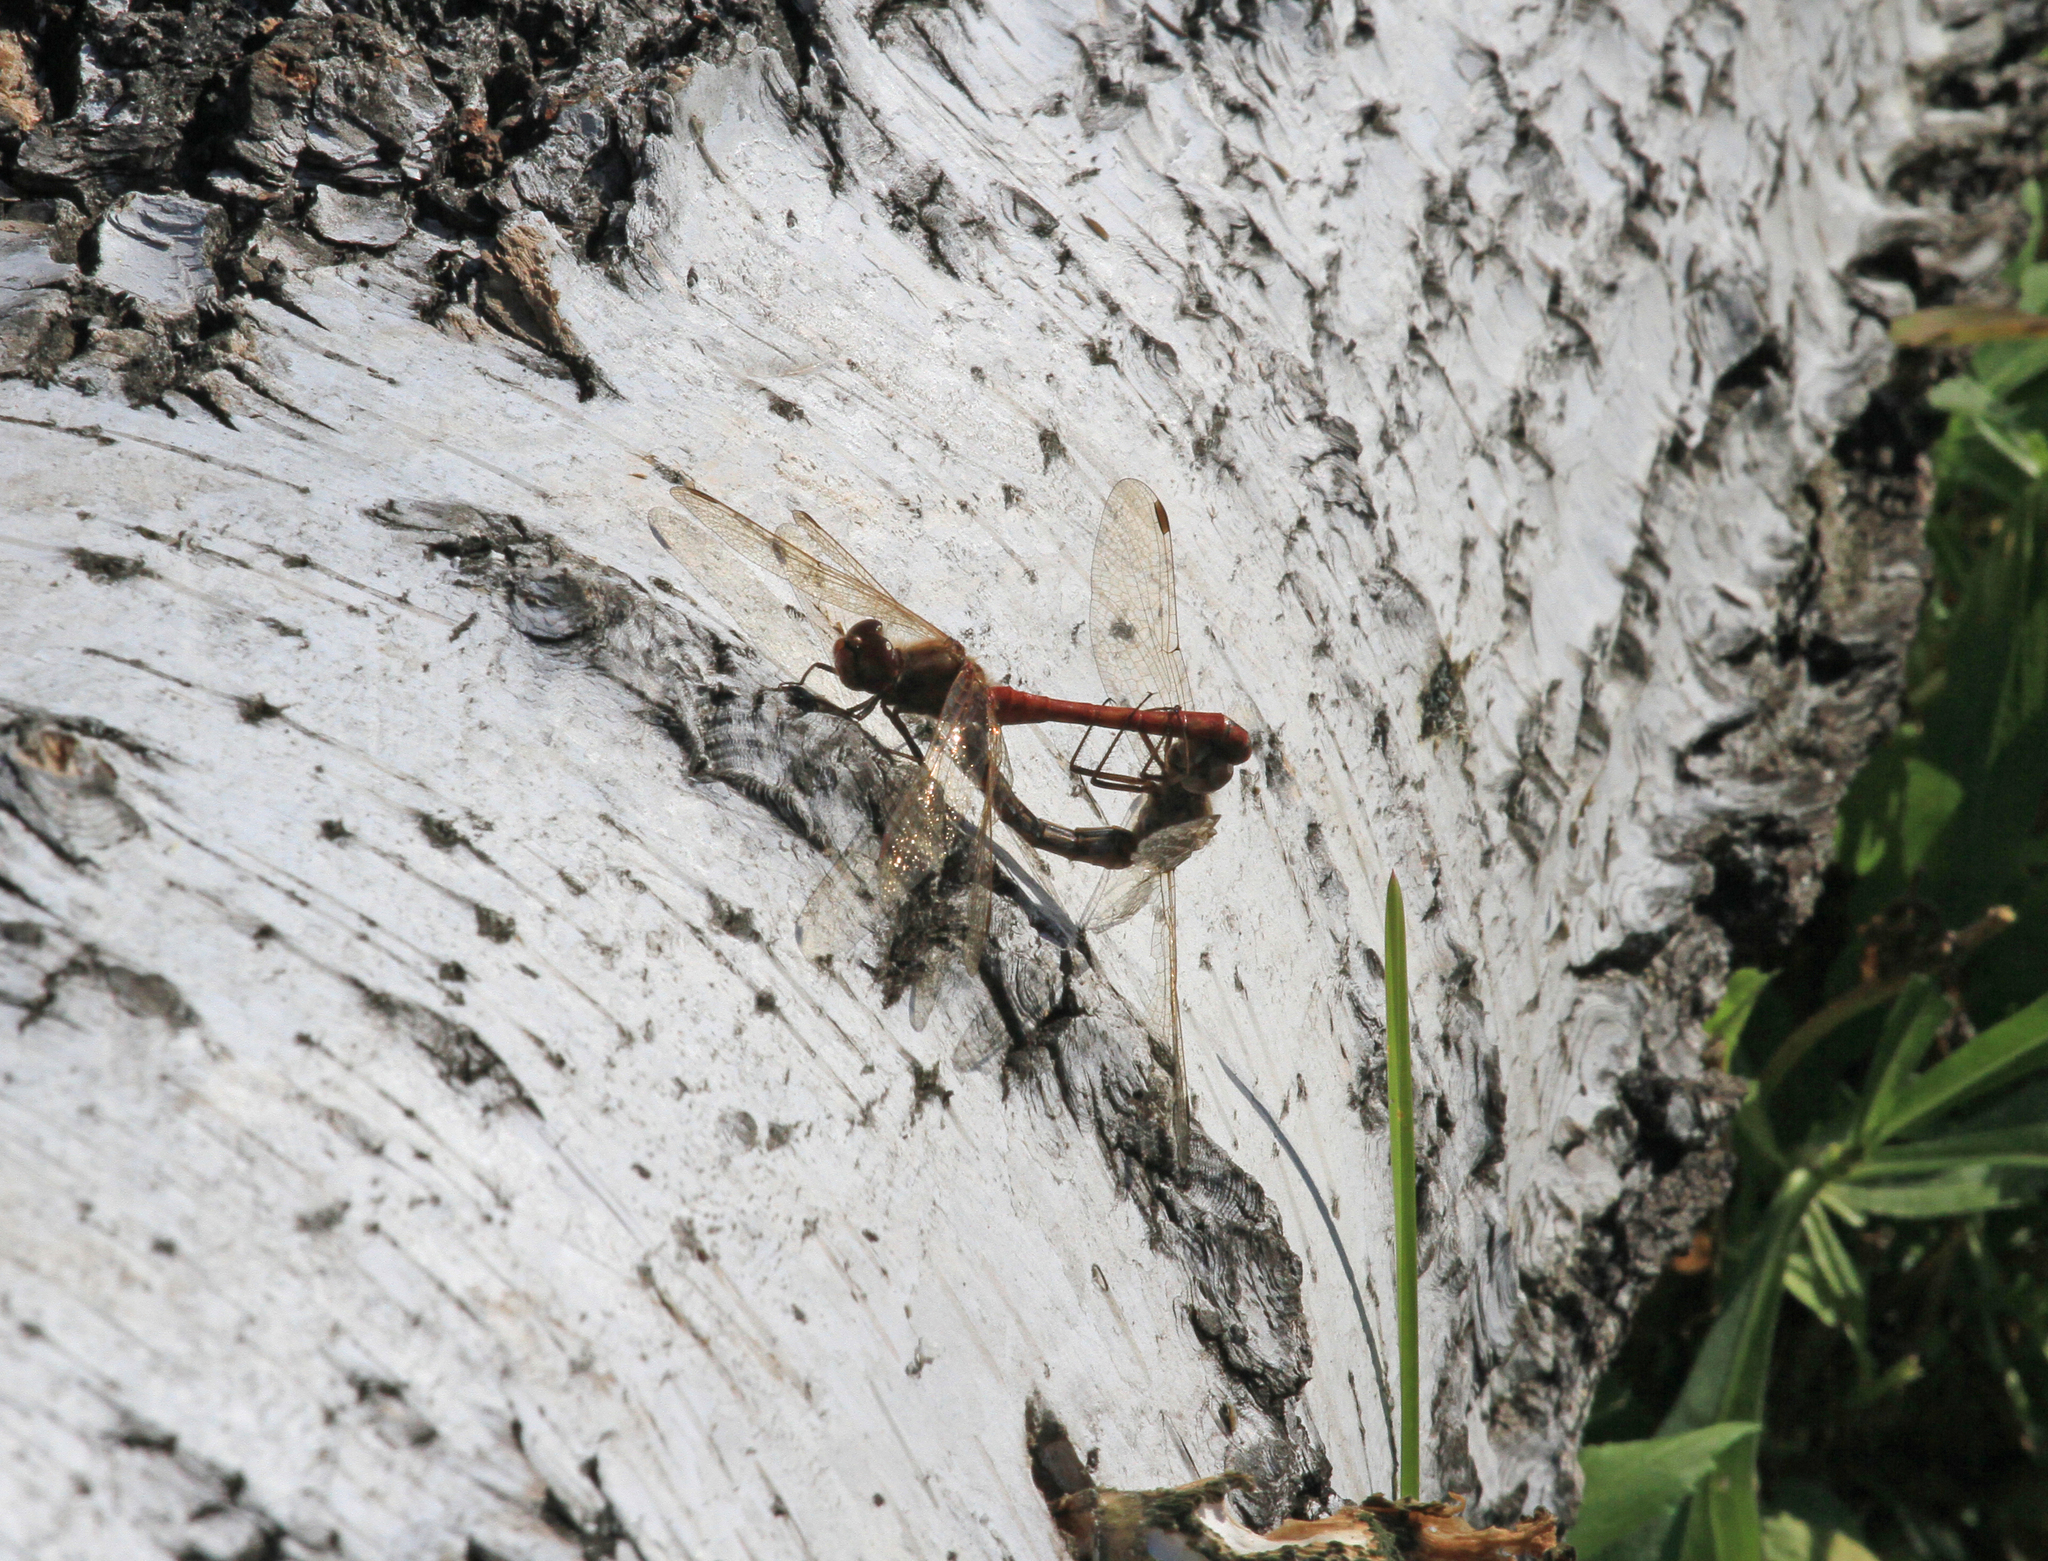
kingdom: Animalia
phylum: Arthropoda
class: Insecta
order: Odonata
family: Libellulidae
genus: Sympetrum
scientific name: Sympetrum vulgatum
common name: Vagrant darter
